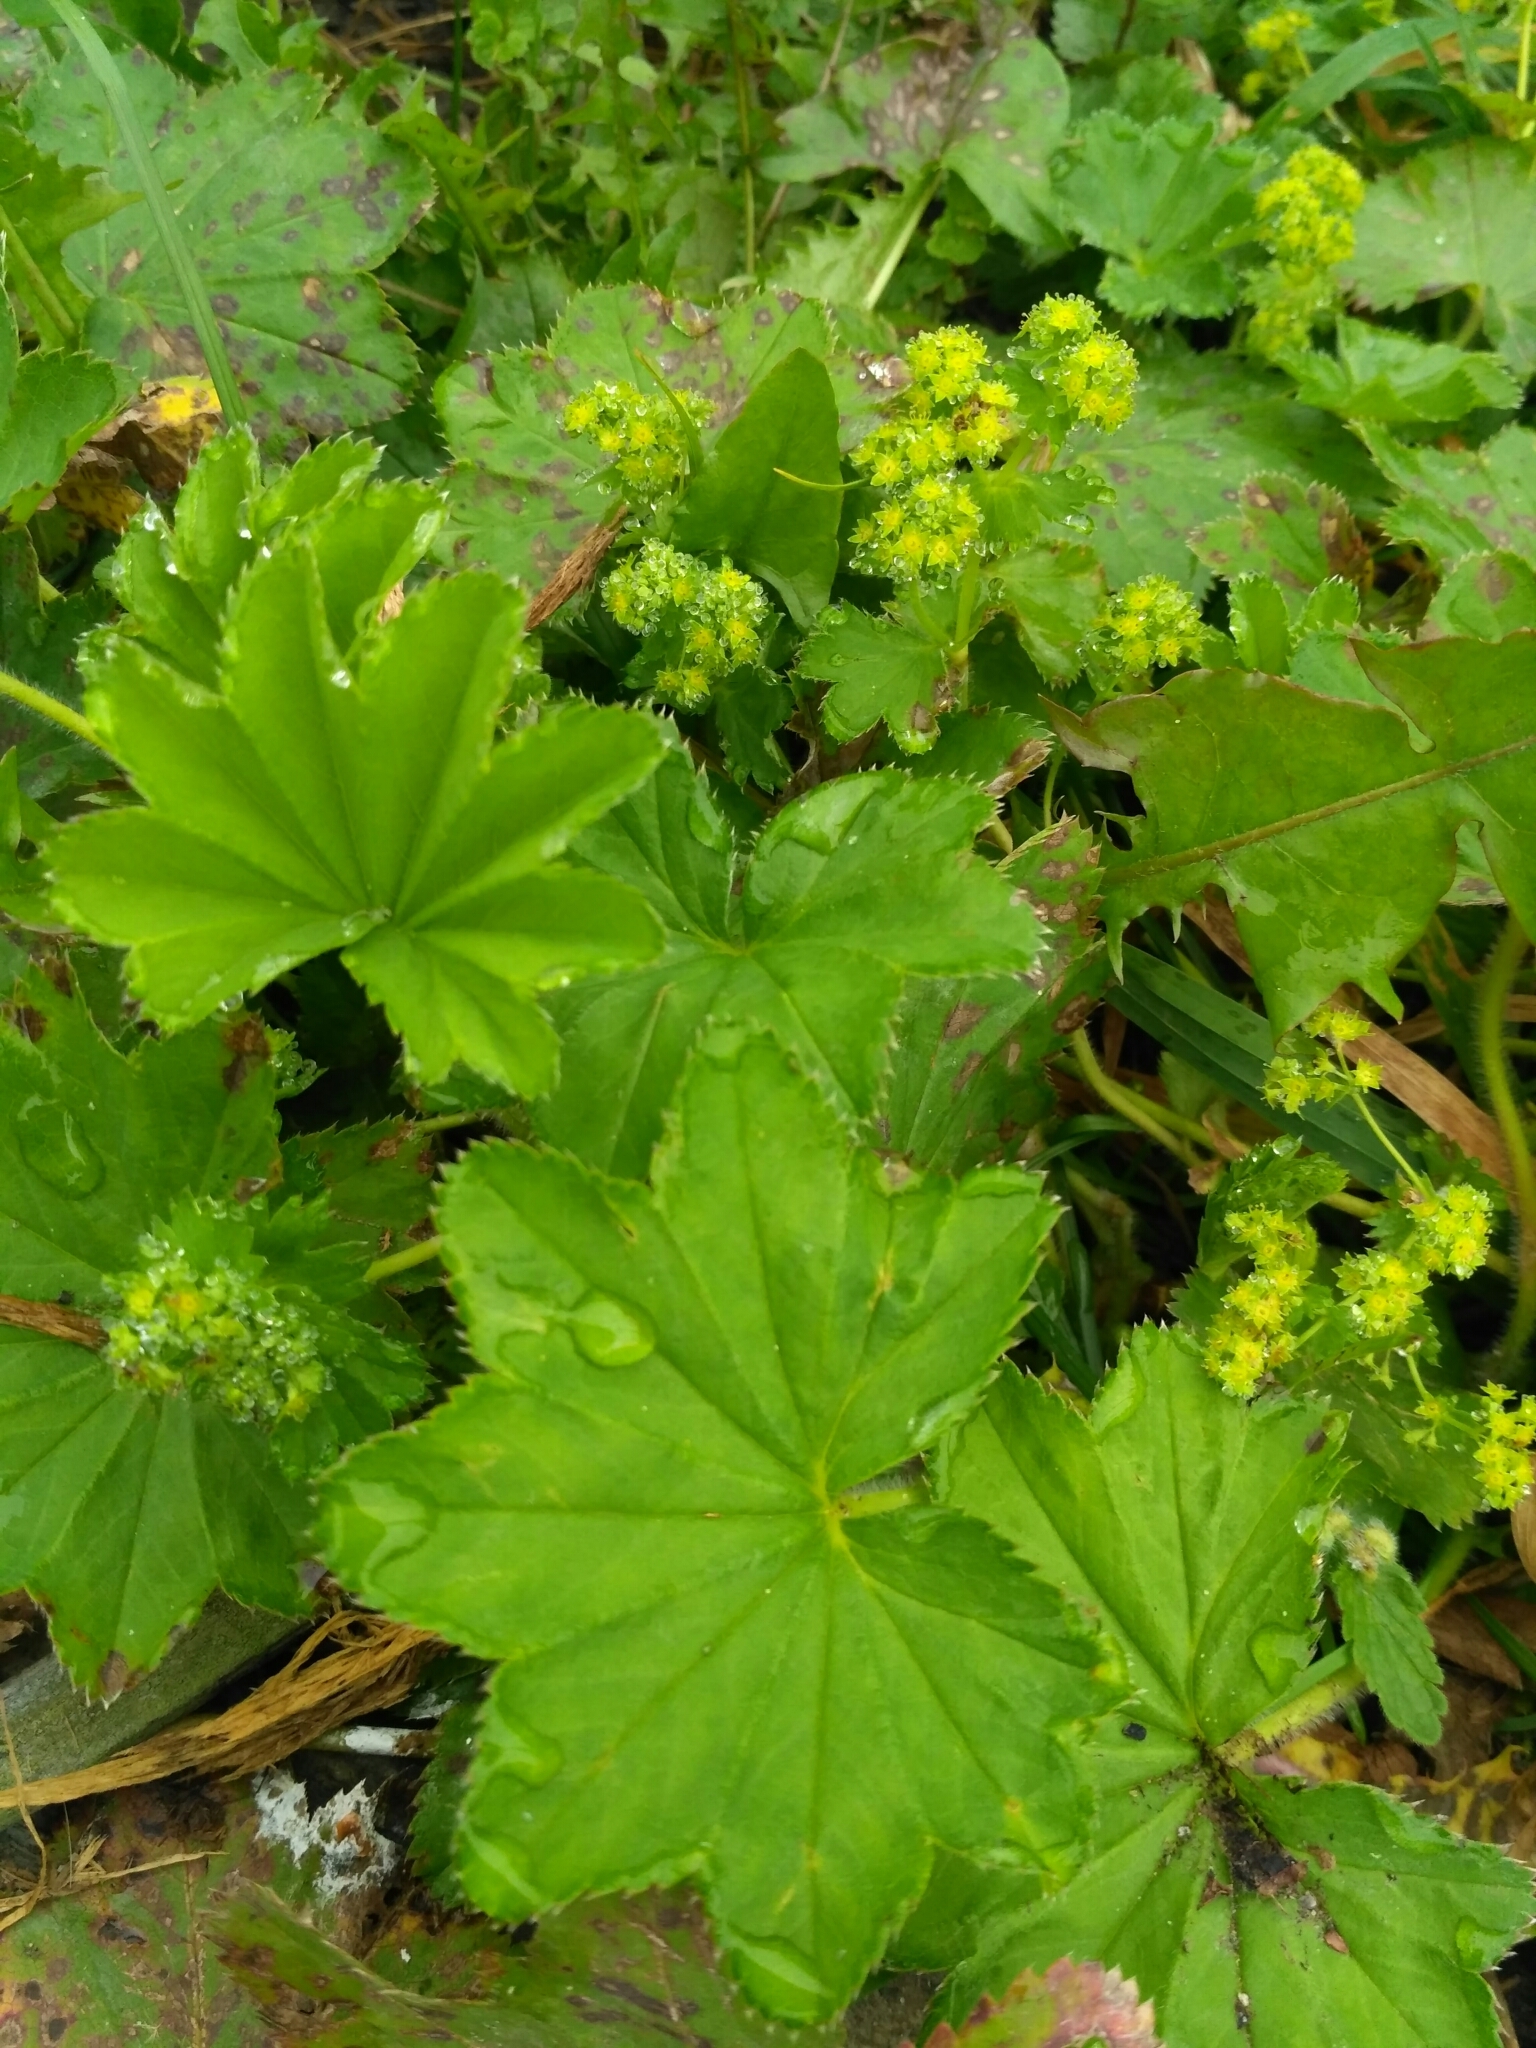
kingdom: Plantae
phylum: Tracheophyta
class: Magnoliopsida
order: Rosales
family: Rosaceae
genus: Alchemilla
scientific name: Alchemilla tichomirovii
